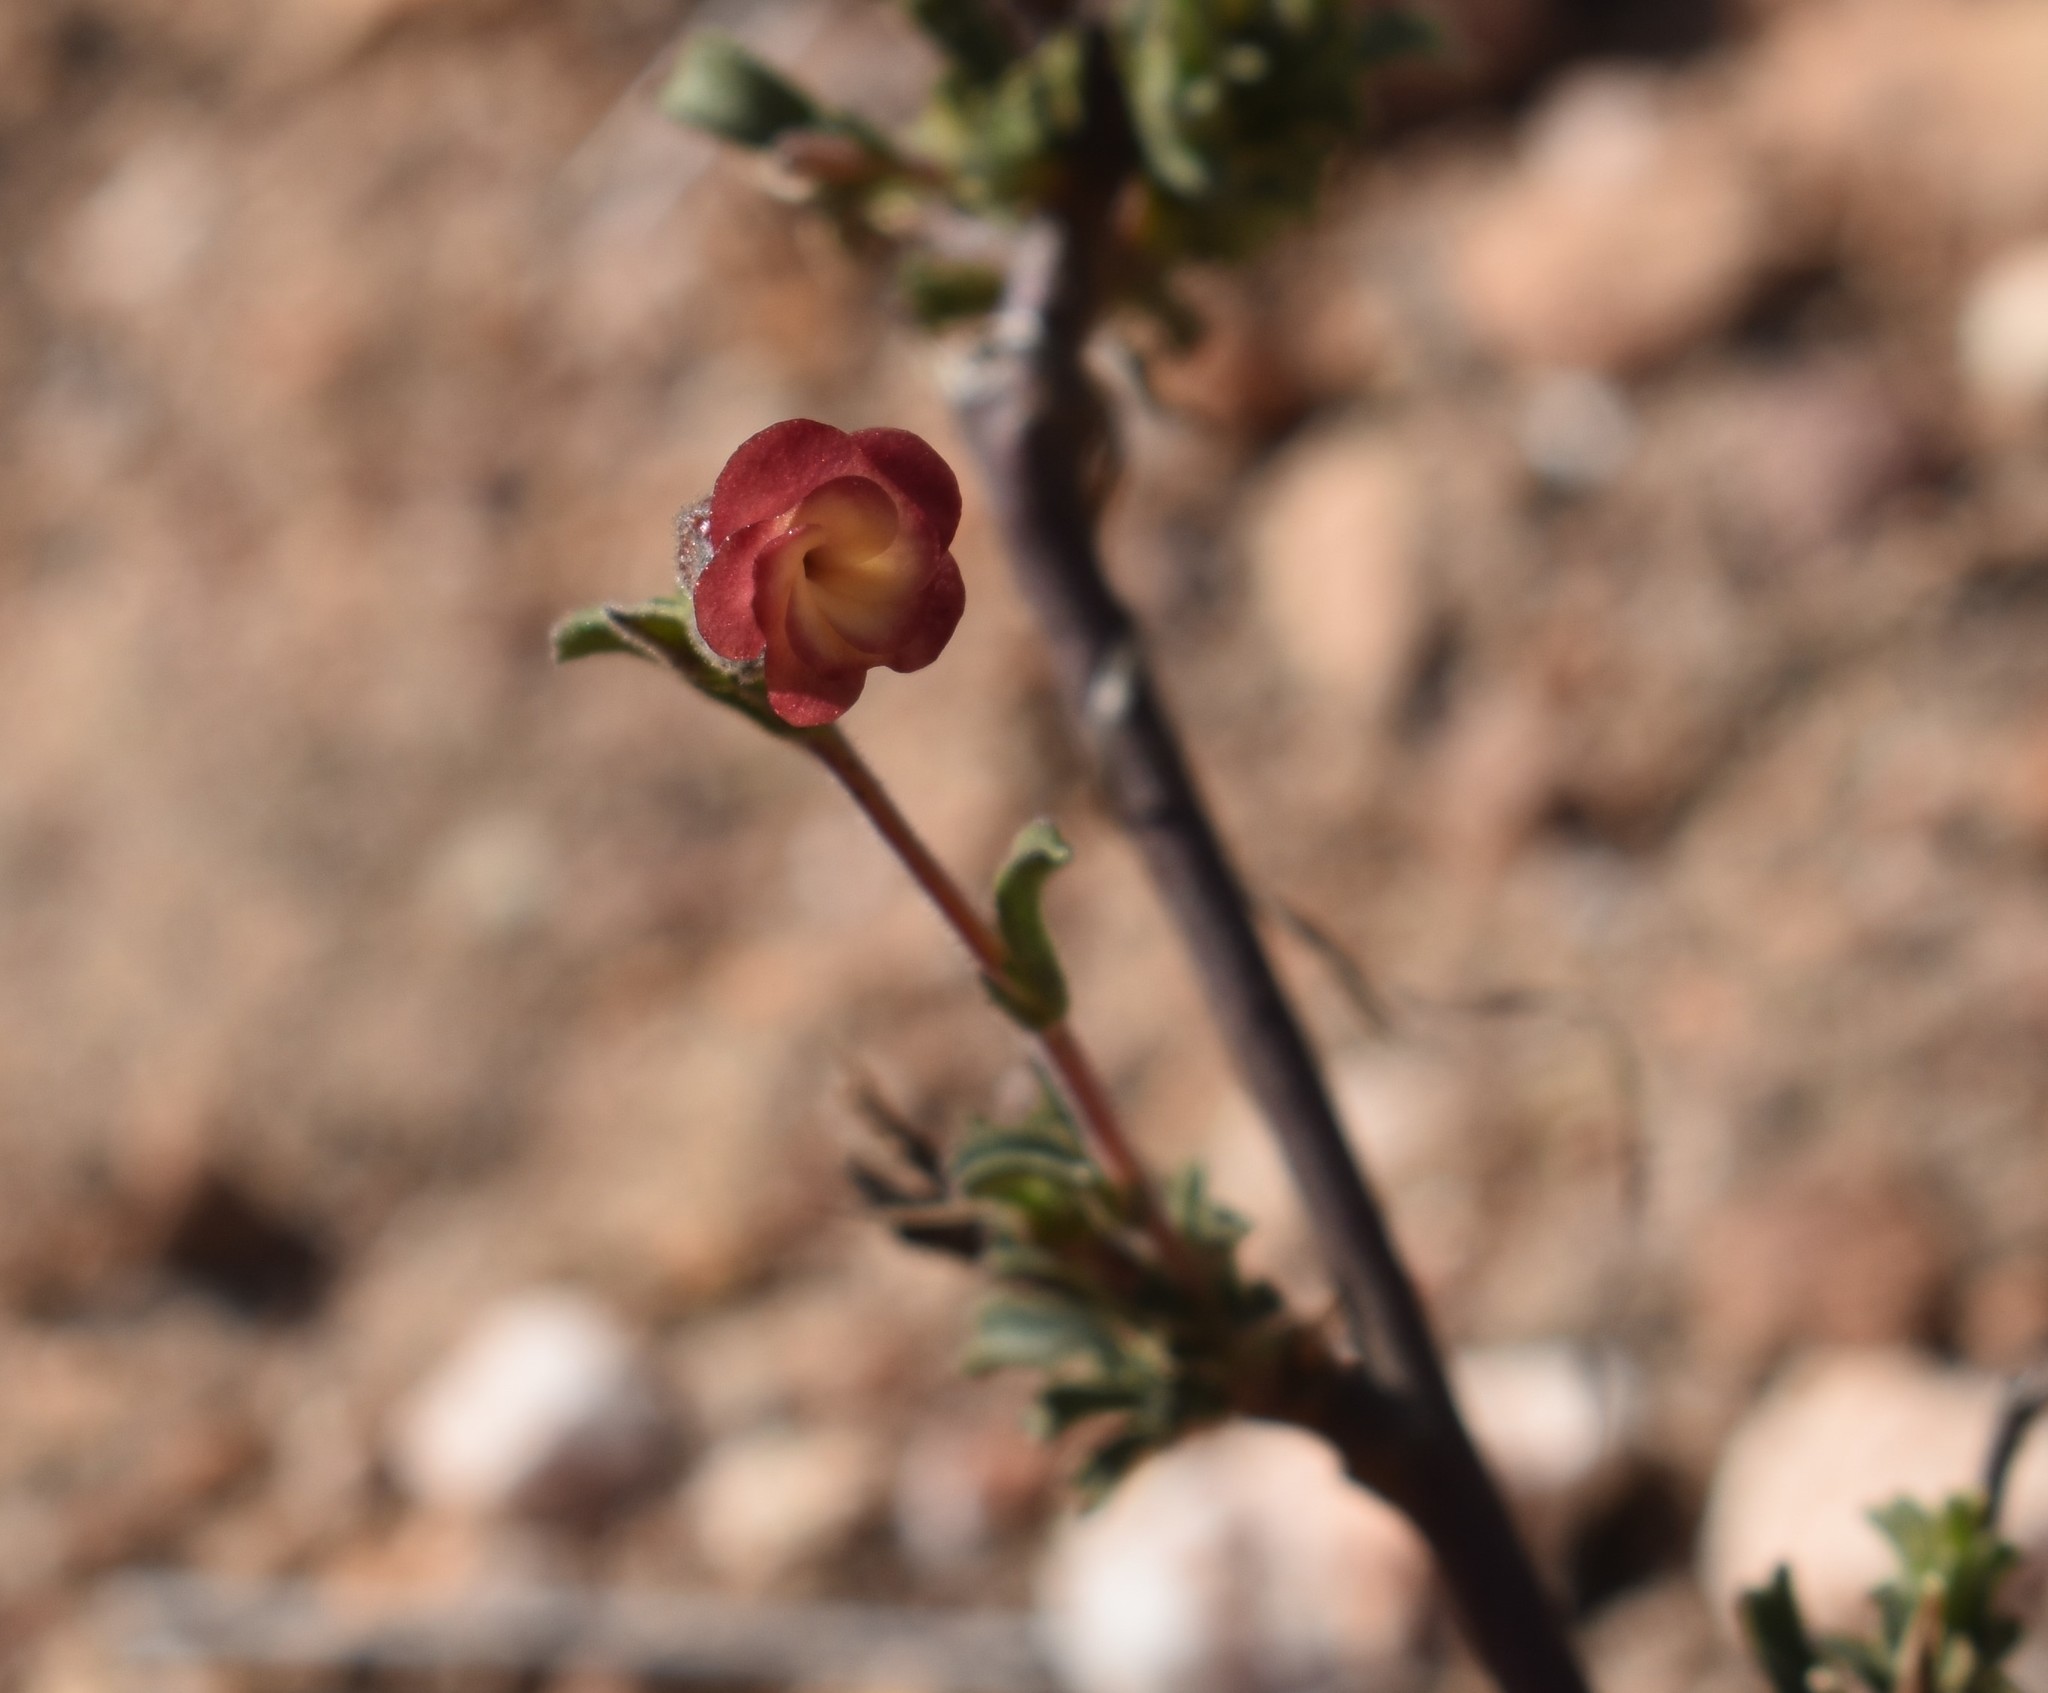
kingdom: Plantae
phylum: Tracheophyta
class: Magnoliopsida
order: Malvales
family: Malvaceae
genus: Hermannia
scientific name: Hermannia flammula
